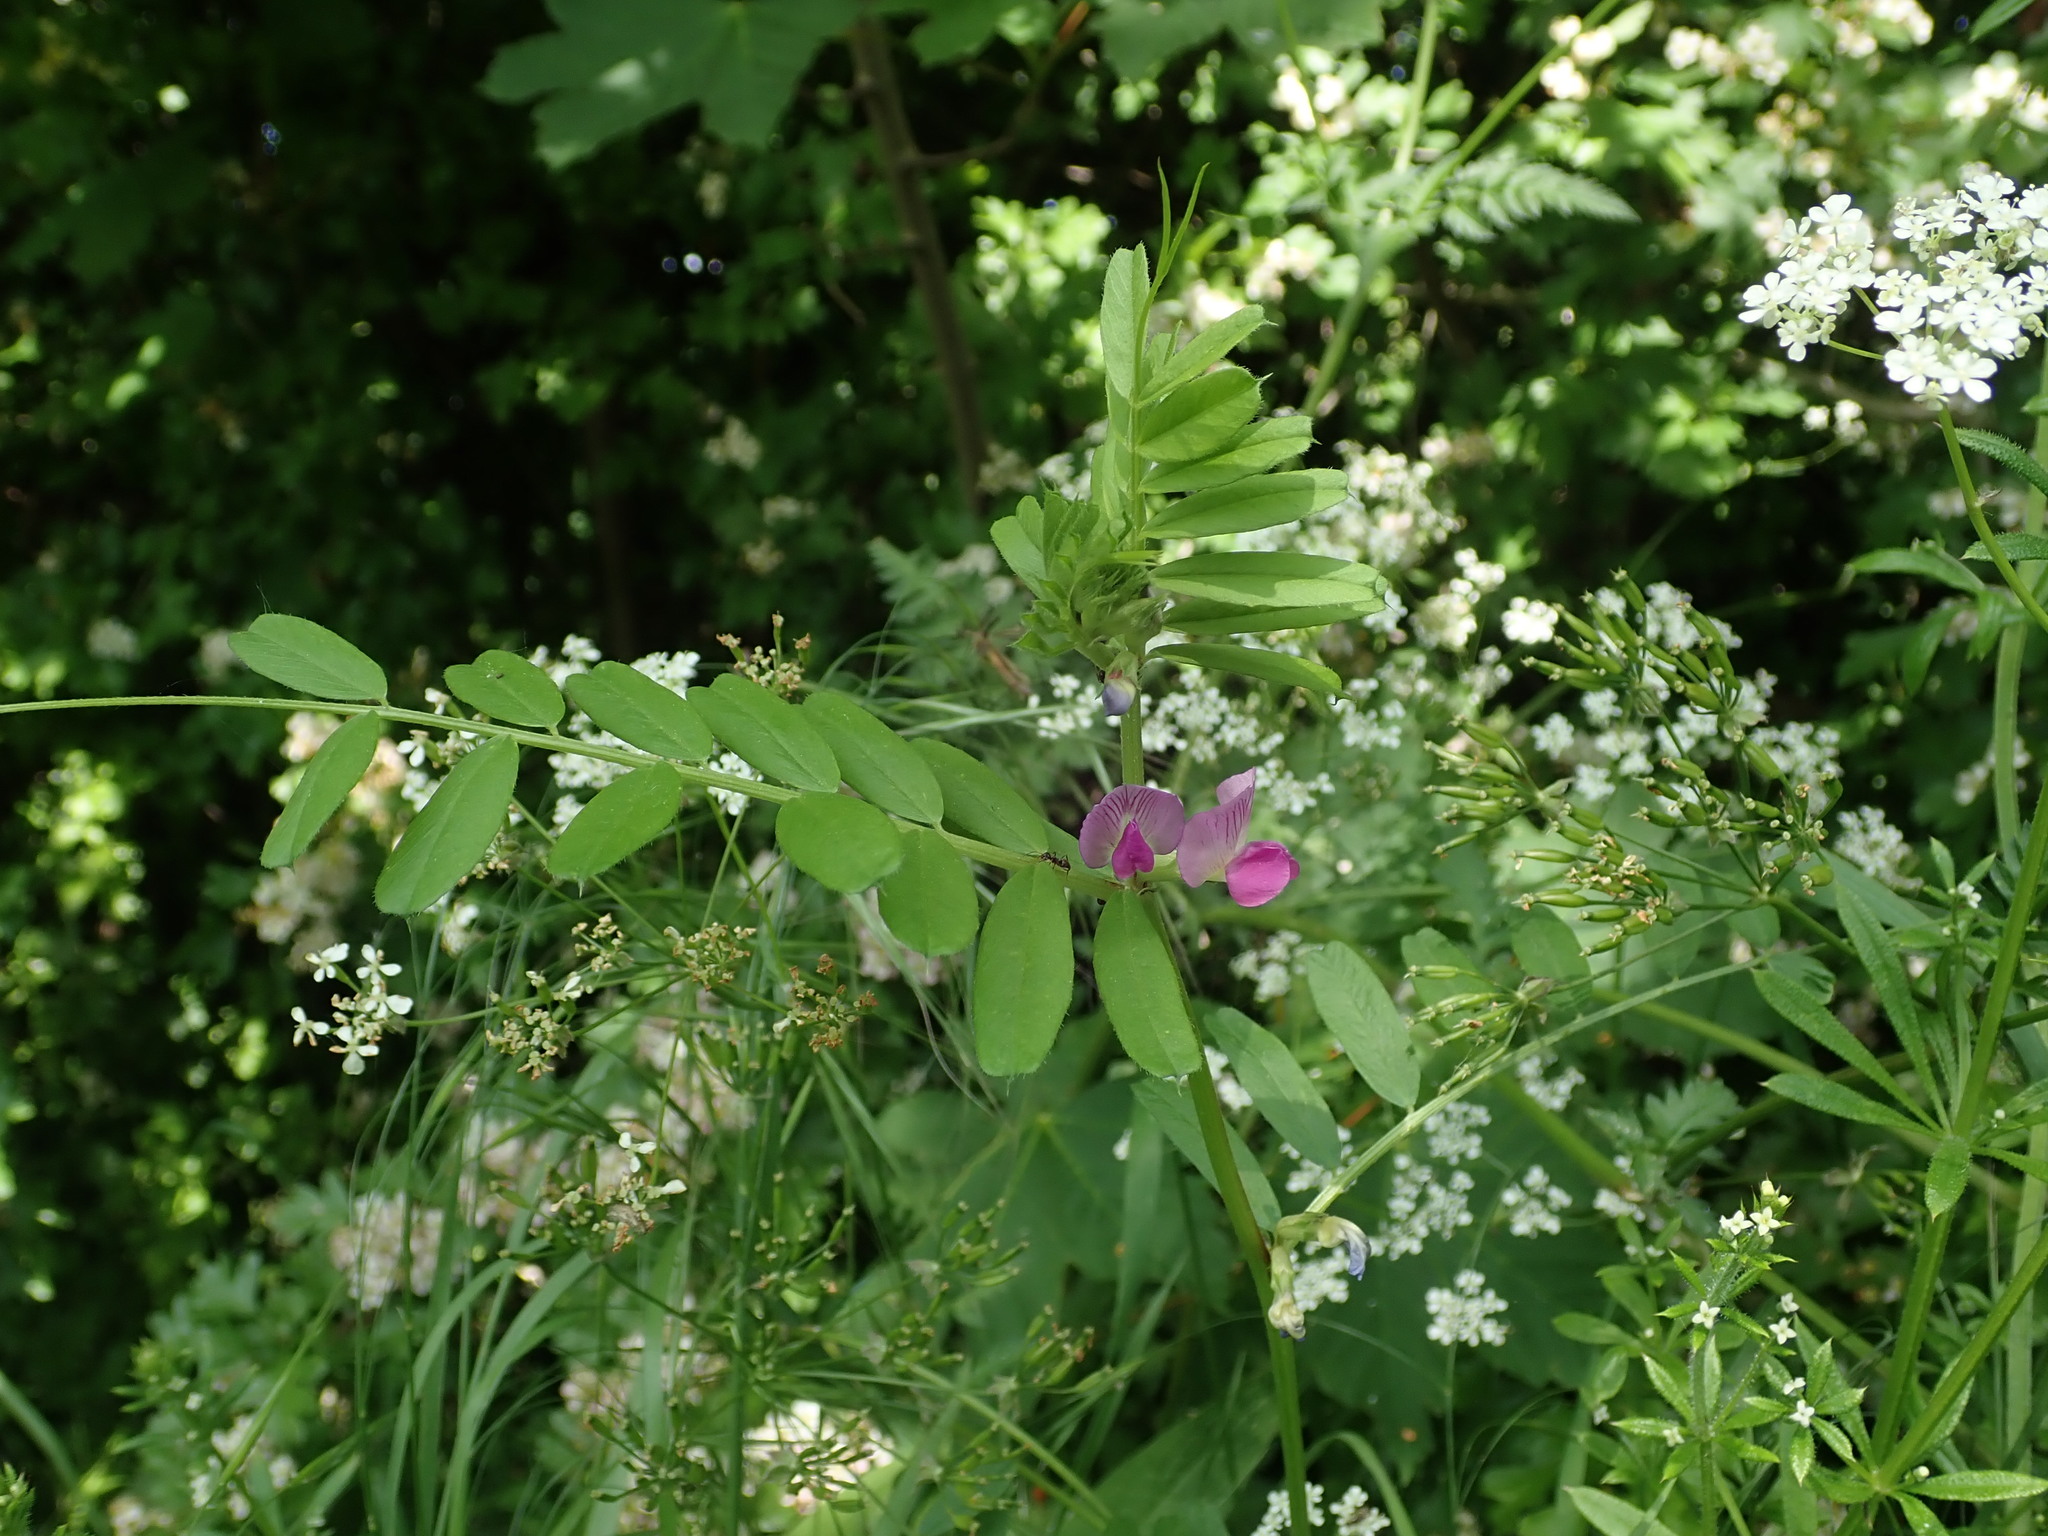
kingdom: Plantae
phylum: Tracheophyta
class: Magnoliopsida
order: Fabales
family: Fabaceae
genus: Vicia
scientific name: Vicia sativa
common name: Garden vetch
